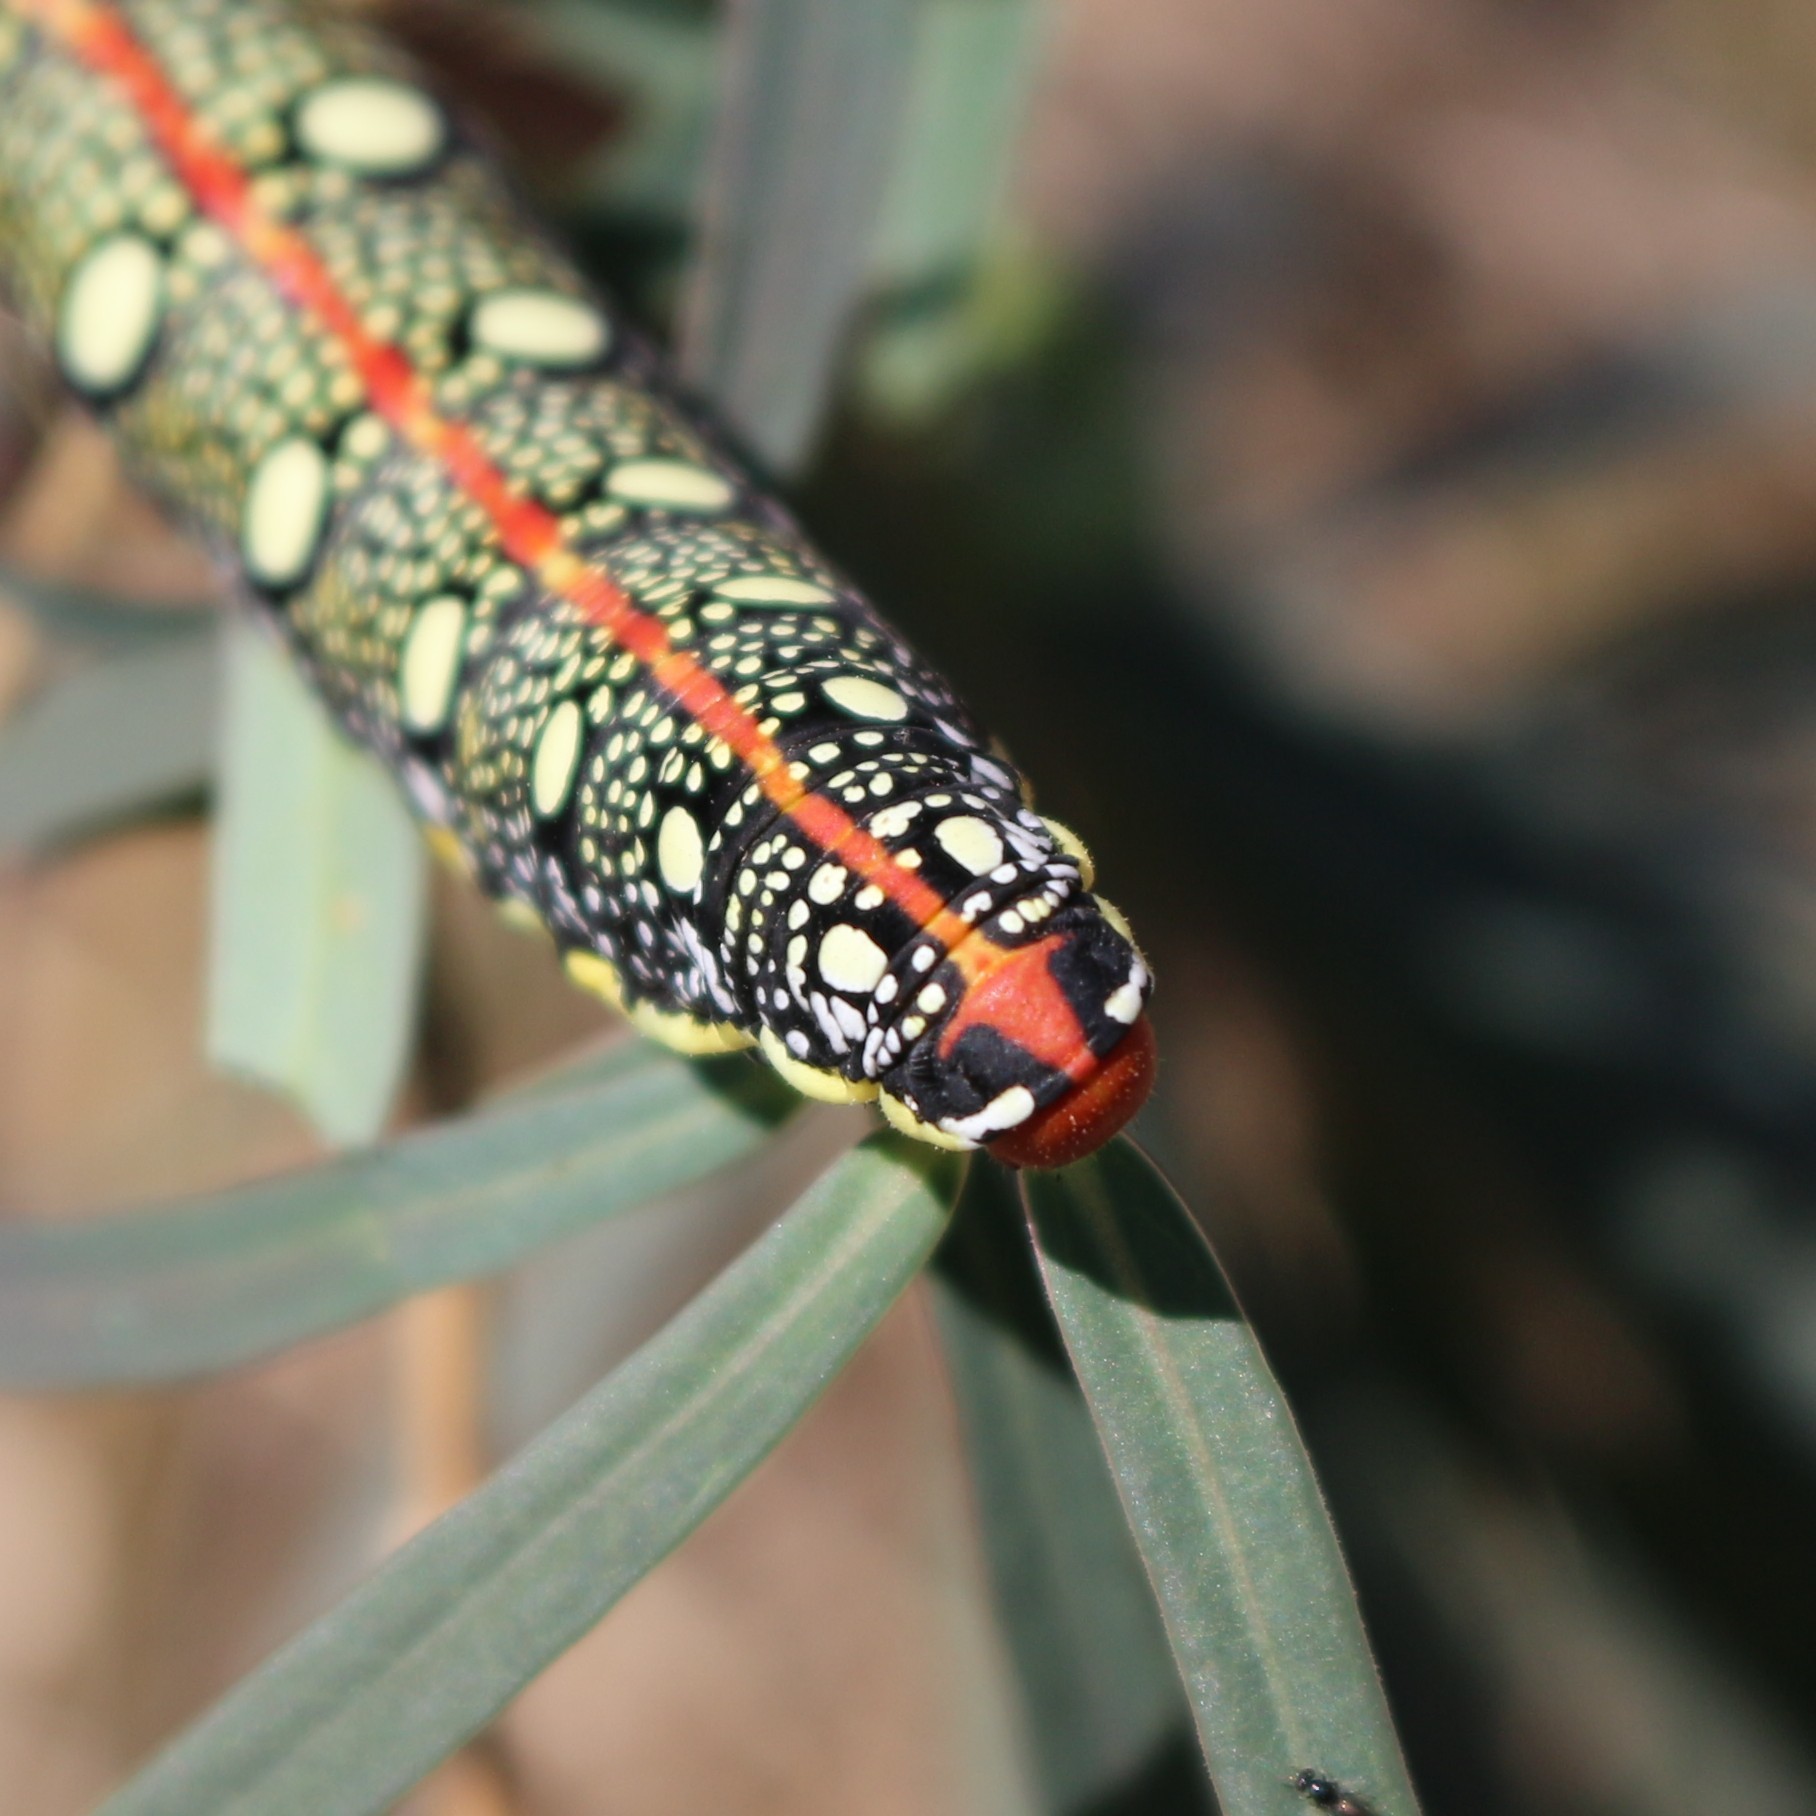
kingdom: Animalia
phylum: Arthropoda
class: Insecta
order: Lepidoptera
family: Sphingidae
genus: Hyles
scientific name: Hyles euphorbiae
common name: Spurge hawk-moth
